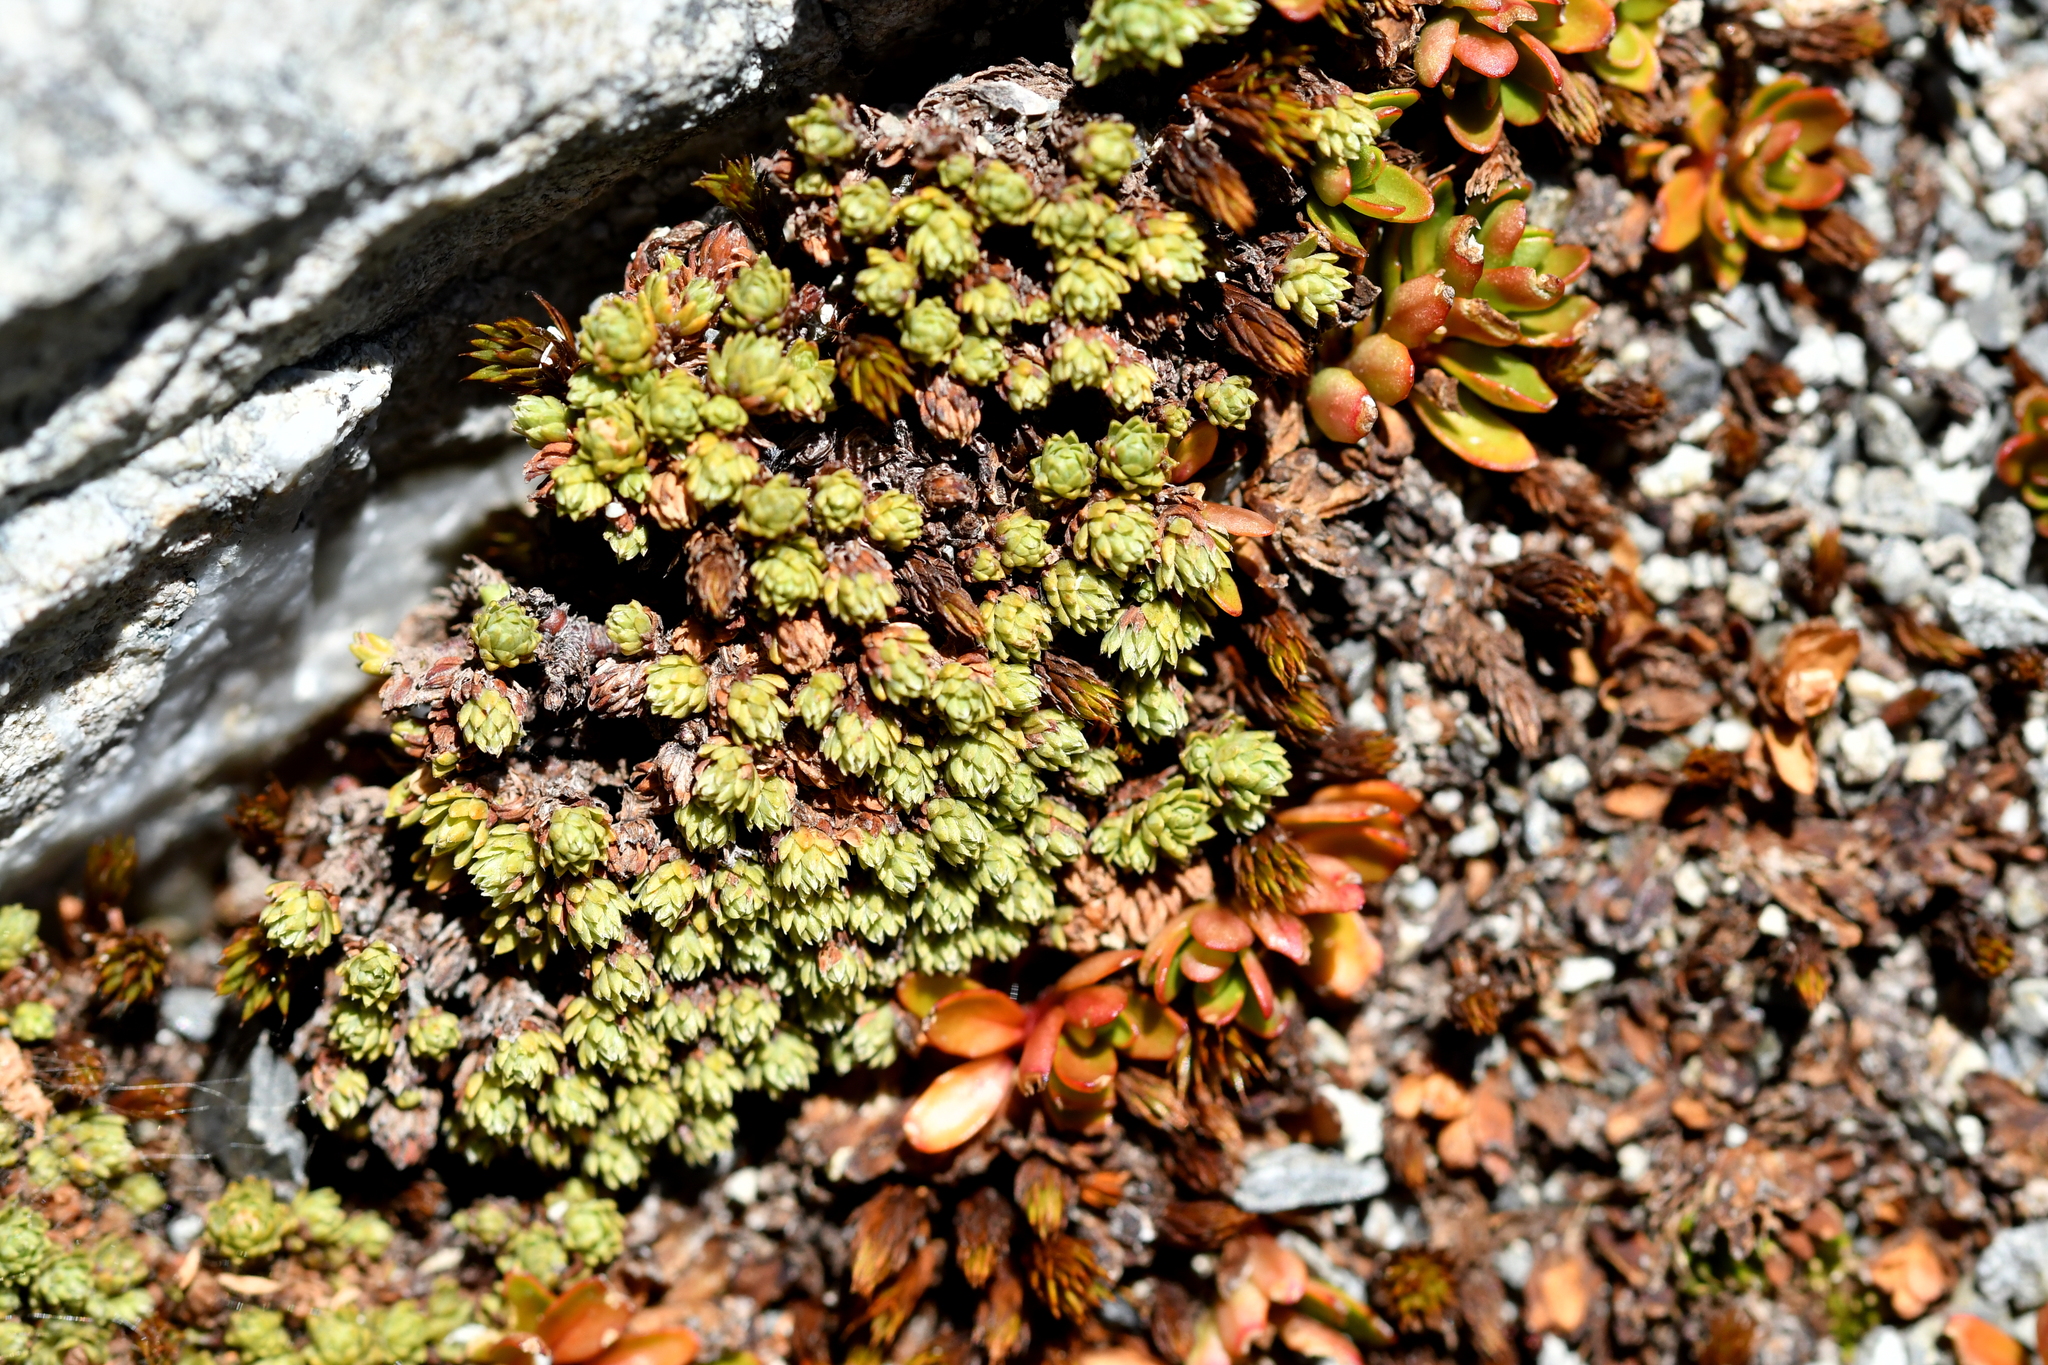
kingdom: Plantae
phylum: Tracheophyta
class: Magnoliopsida
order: Malvales
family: Thymelaeaceae
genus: Kelleria
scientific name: Kelleria dieffenbachii
